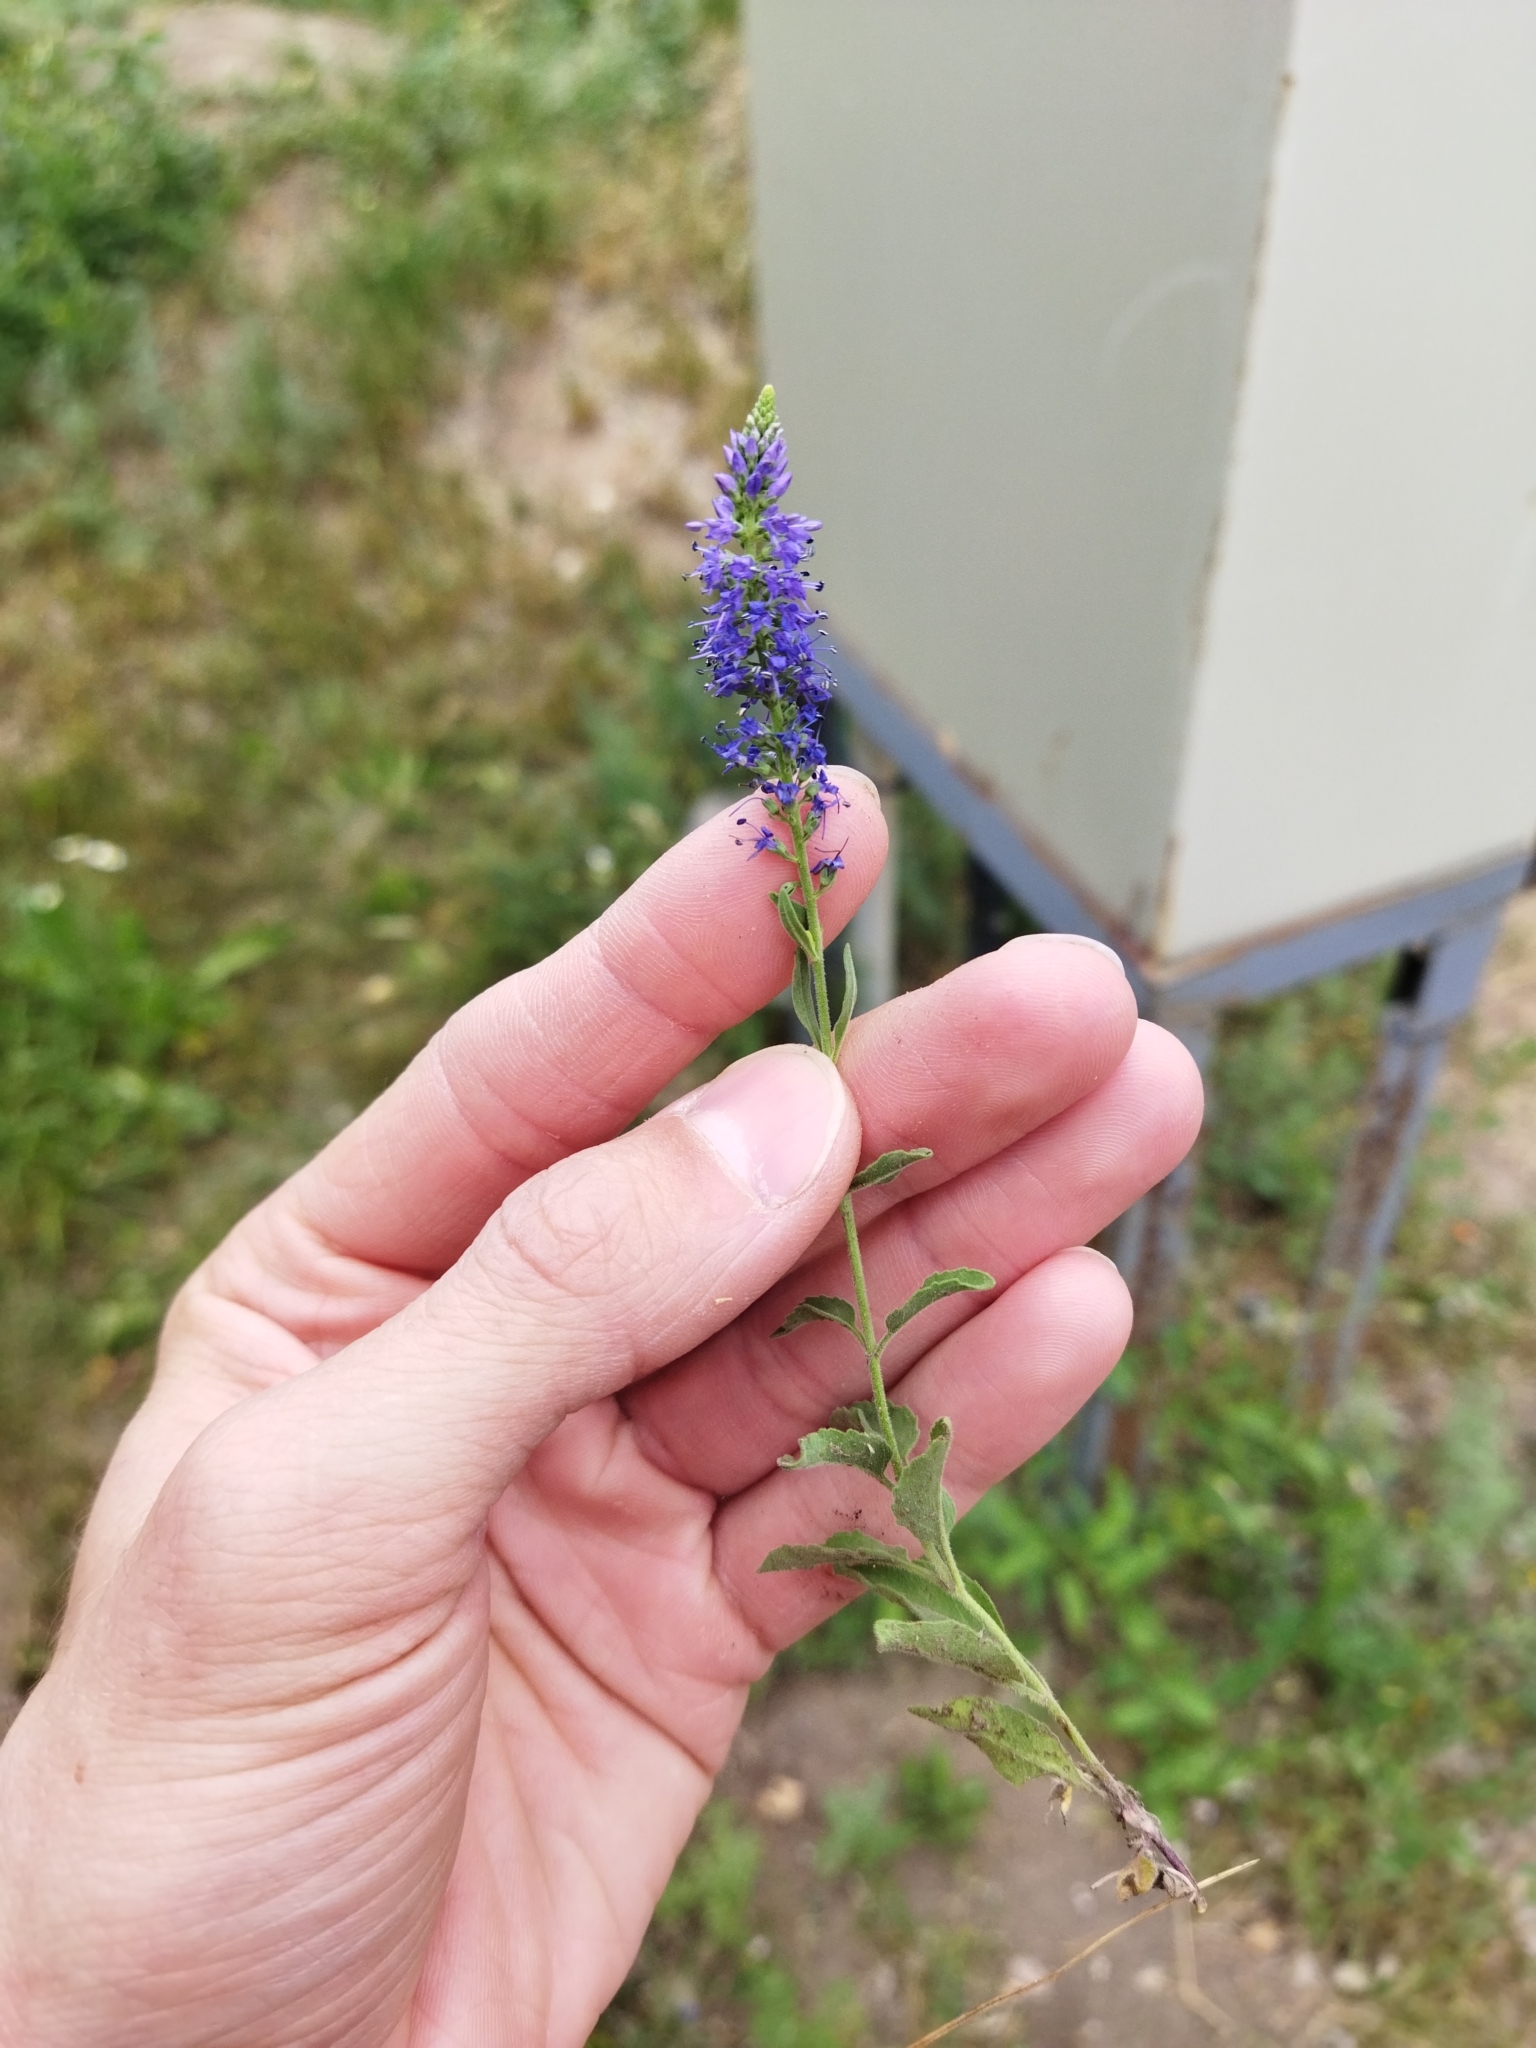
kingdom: Plantae
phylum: Tracheophyta
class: Magnoliopsida
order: Lamiales
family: Plantaginaceae
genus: Veronica
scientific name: Veronica spicata
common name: Spiked speedwell
